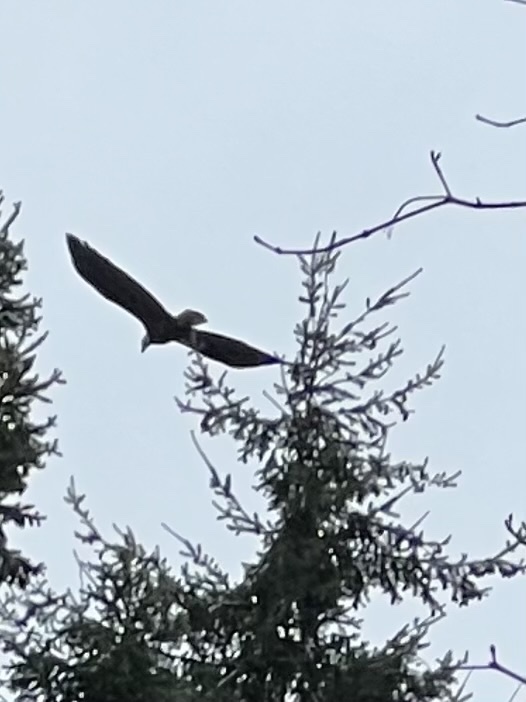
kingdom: Animalia
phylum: Chordata
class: Aves
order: Accipitriformes
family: Accipitridae
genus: Haliaeetus
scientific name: Haliaeetus leucocephalus
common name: Bald eagle
